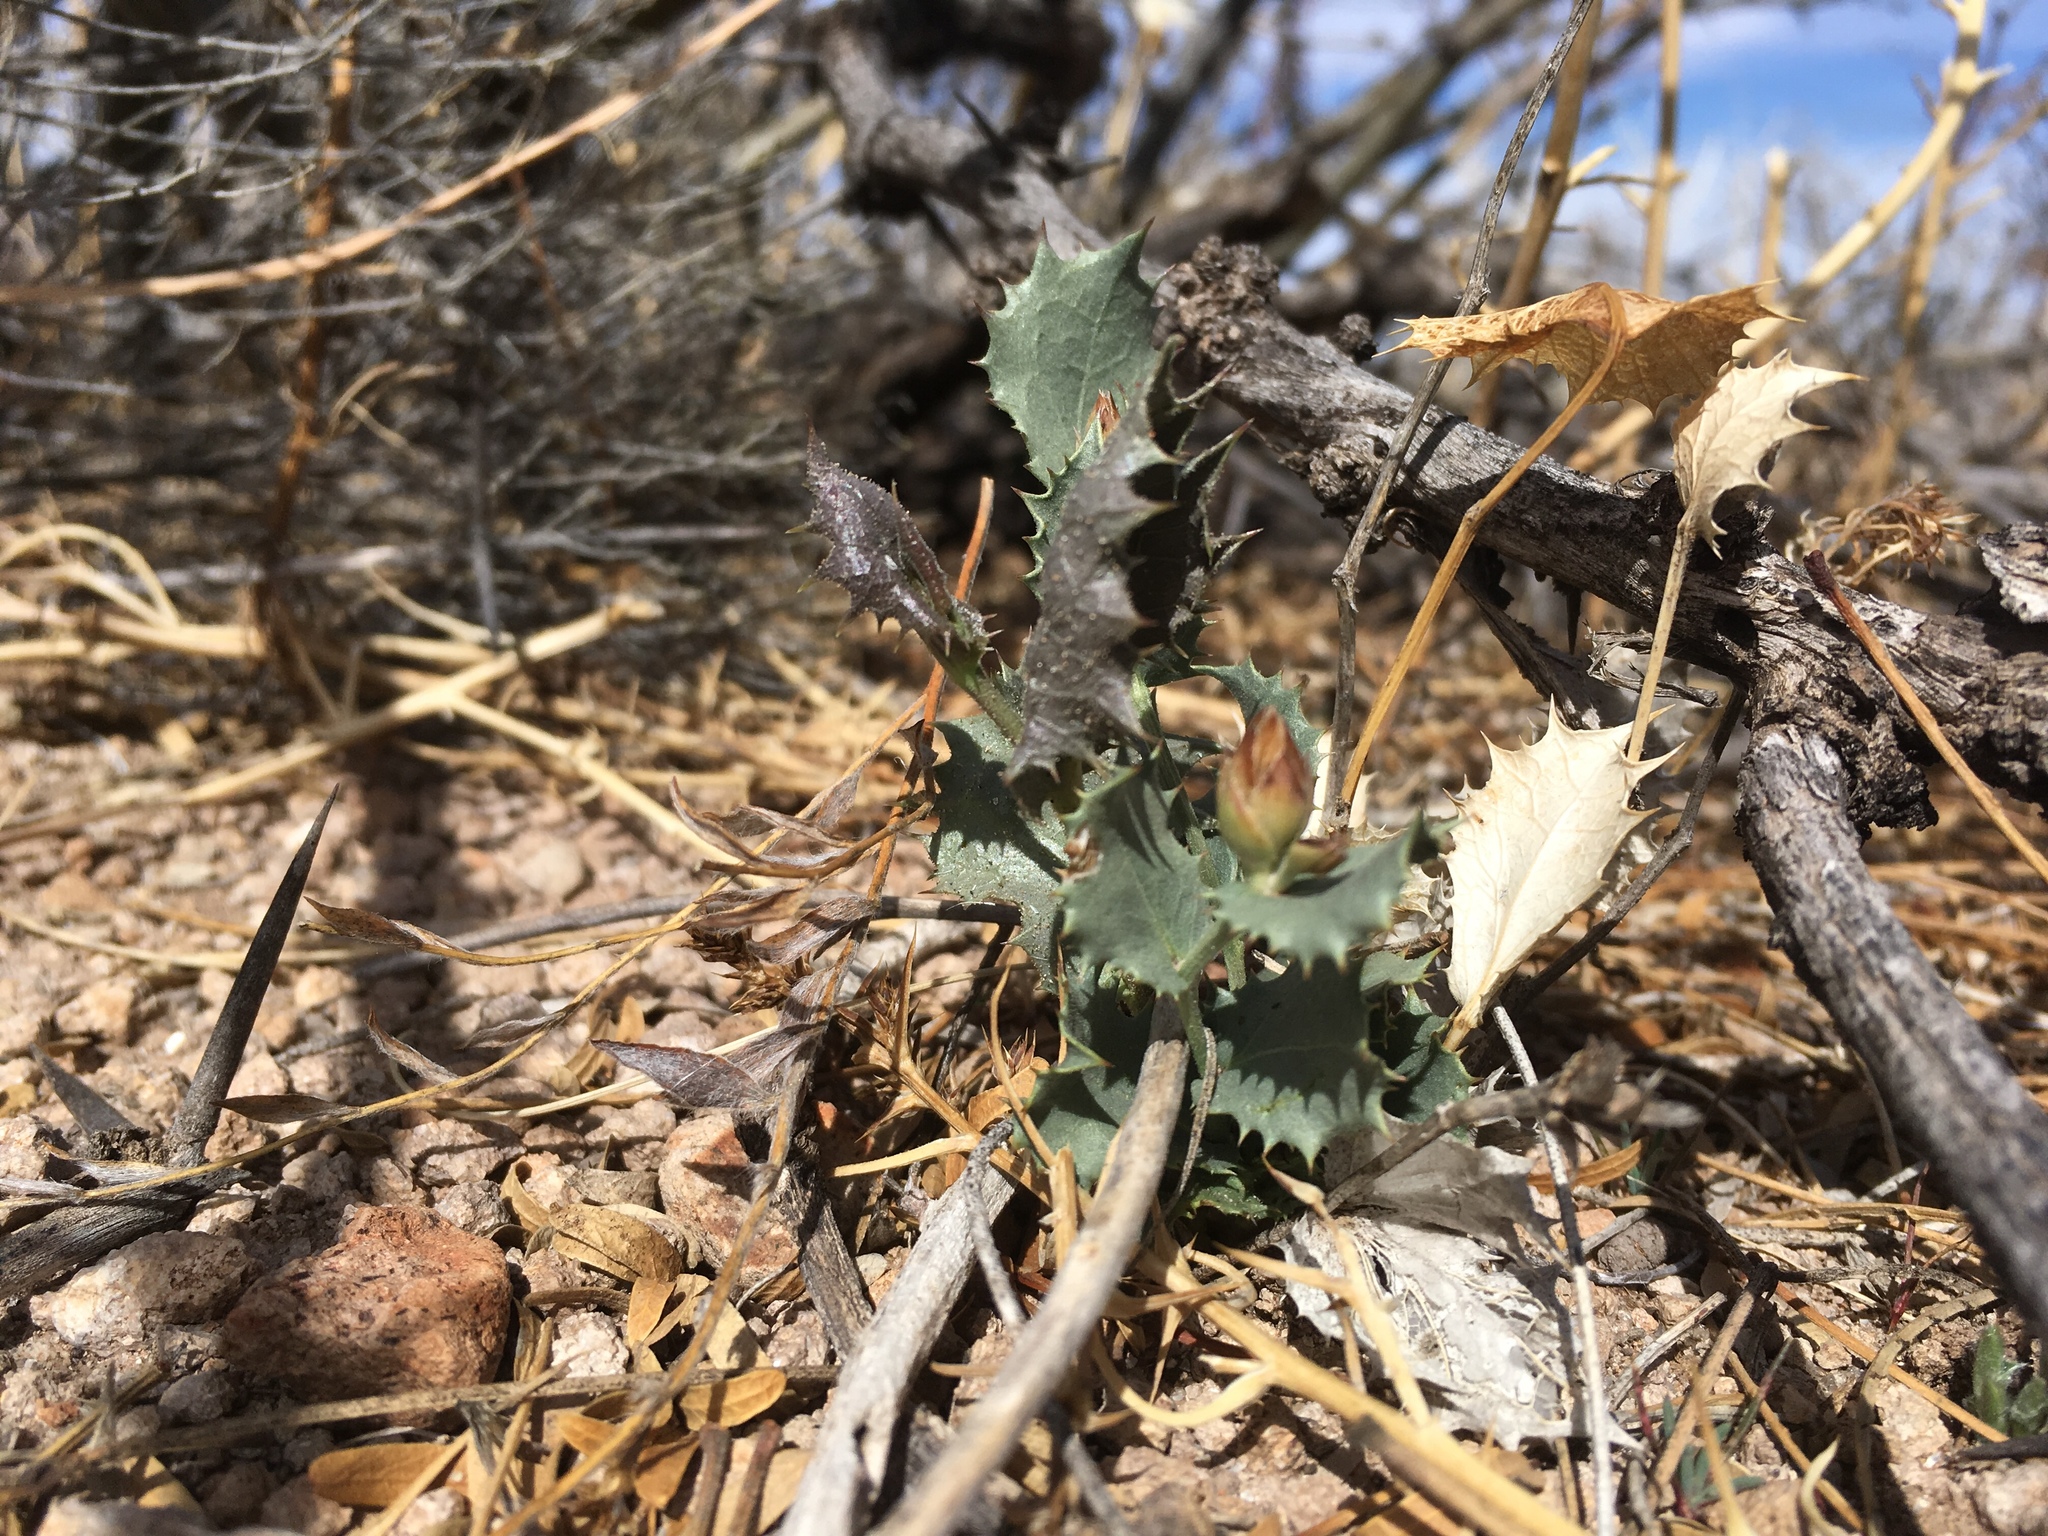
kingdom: Plantae
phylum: Tracheophyta
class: Magnoliopsida
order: Asterales
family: Asteraceae
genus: Acourtia
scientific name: Acourtia nana
